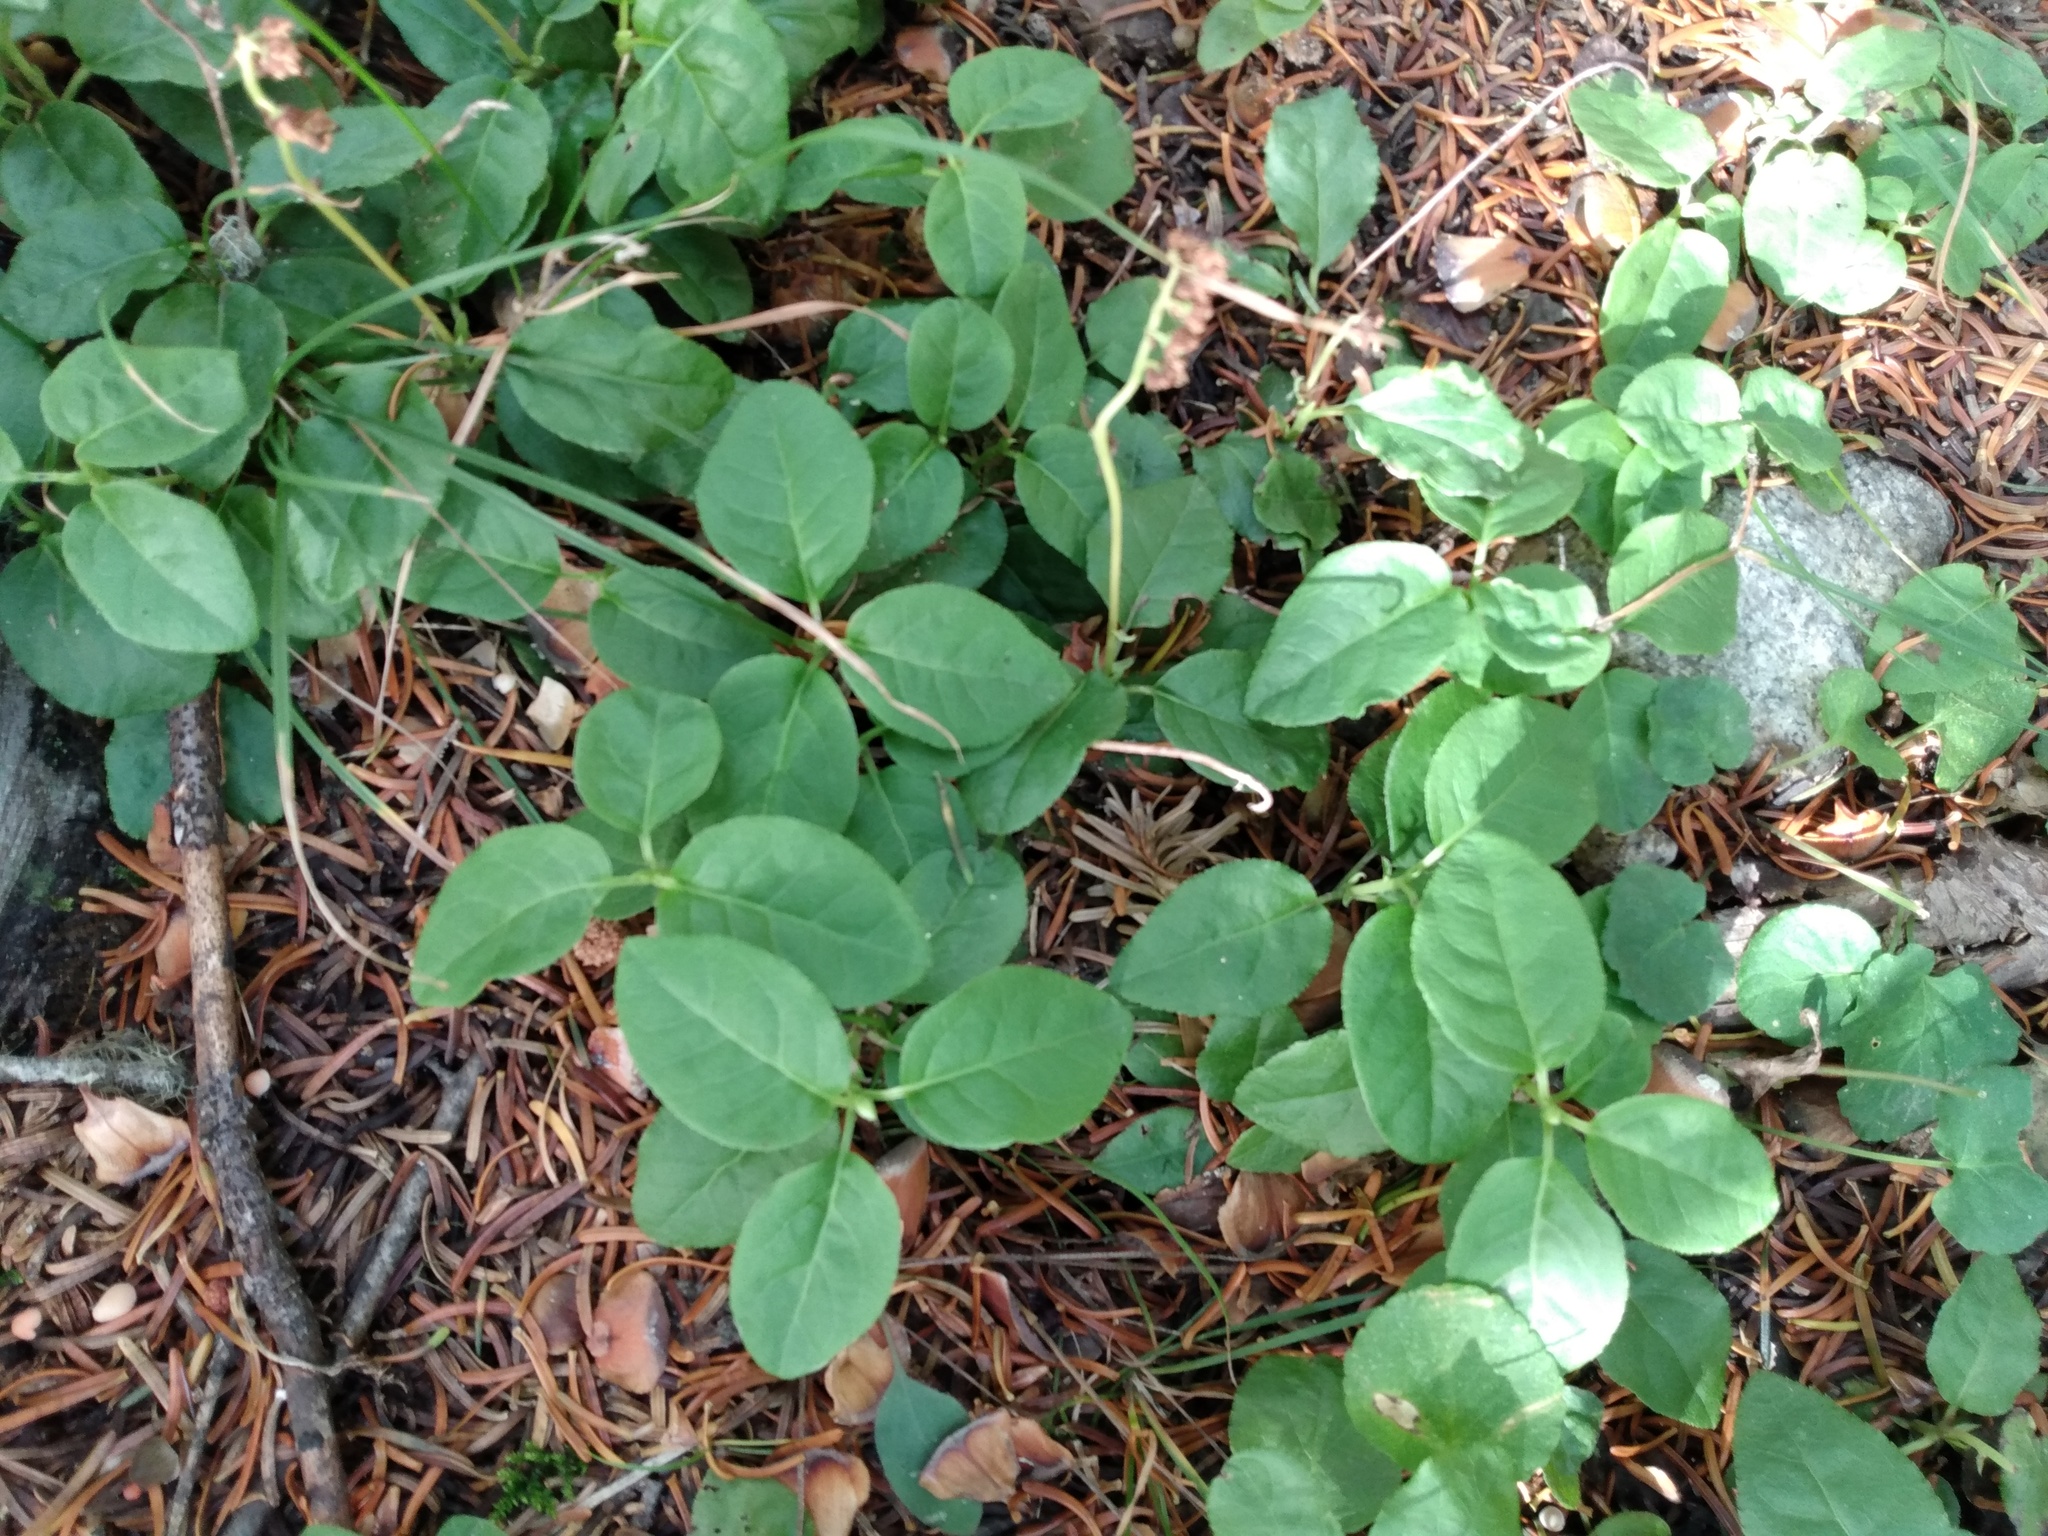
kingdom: Plantae
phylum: Tracheophyta
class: Magnoliopsida
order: Ericales
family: Ericaceae
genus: Orthilia
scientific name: Orthilia secunda
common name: One-sided orthilia
